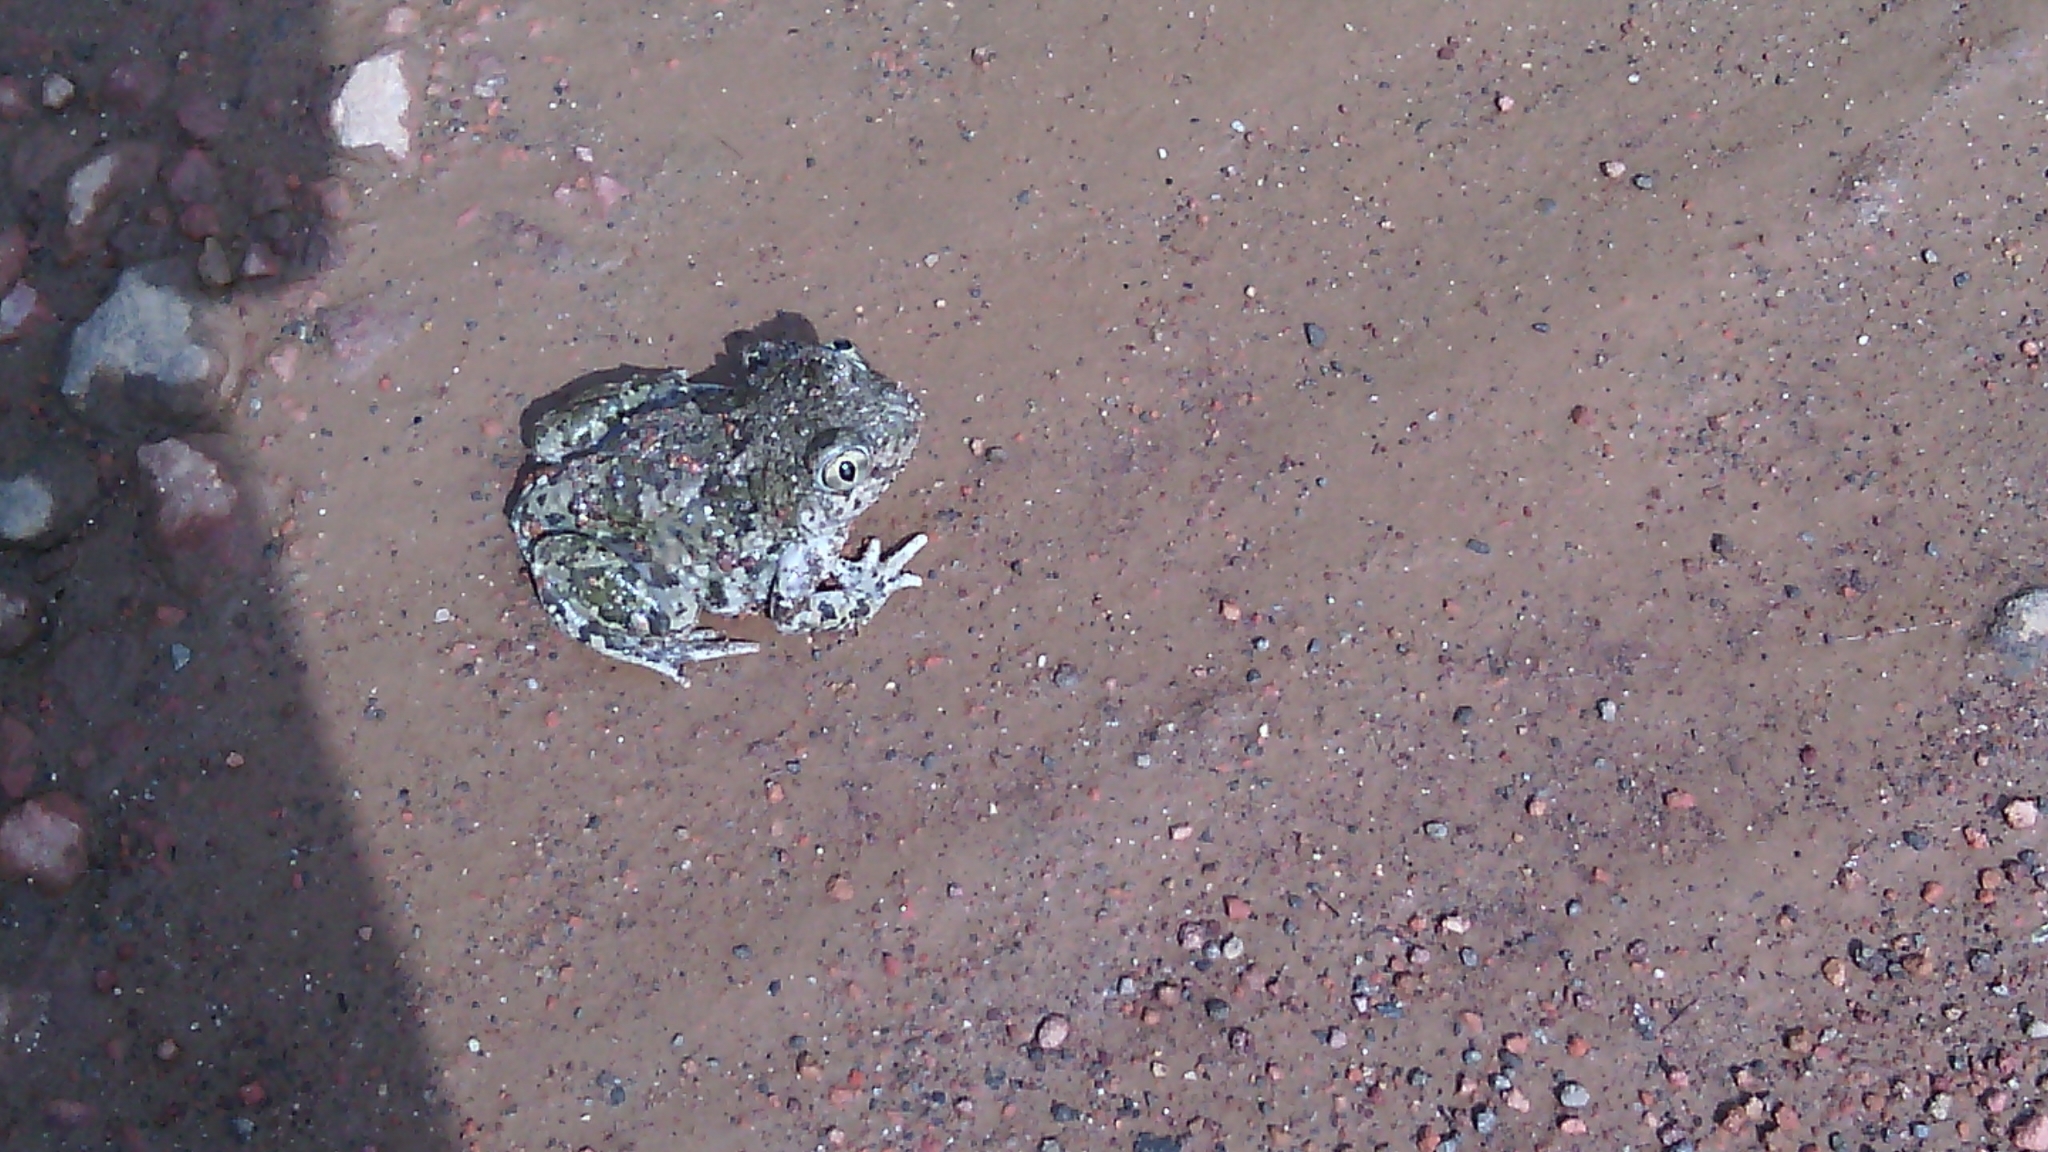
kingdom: Animalia
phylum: Chordata
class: Amphibia
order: Anura
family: Scaphiopodidae
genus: Spea
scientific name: Spea multiplicata
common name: Mexican spadefoot
